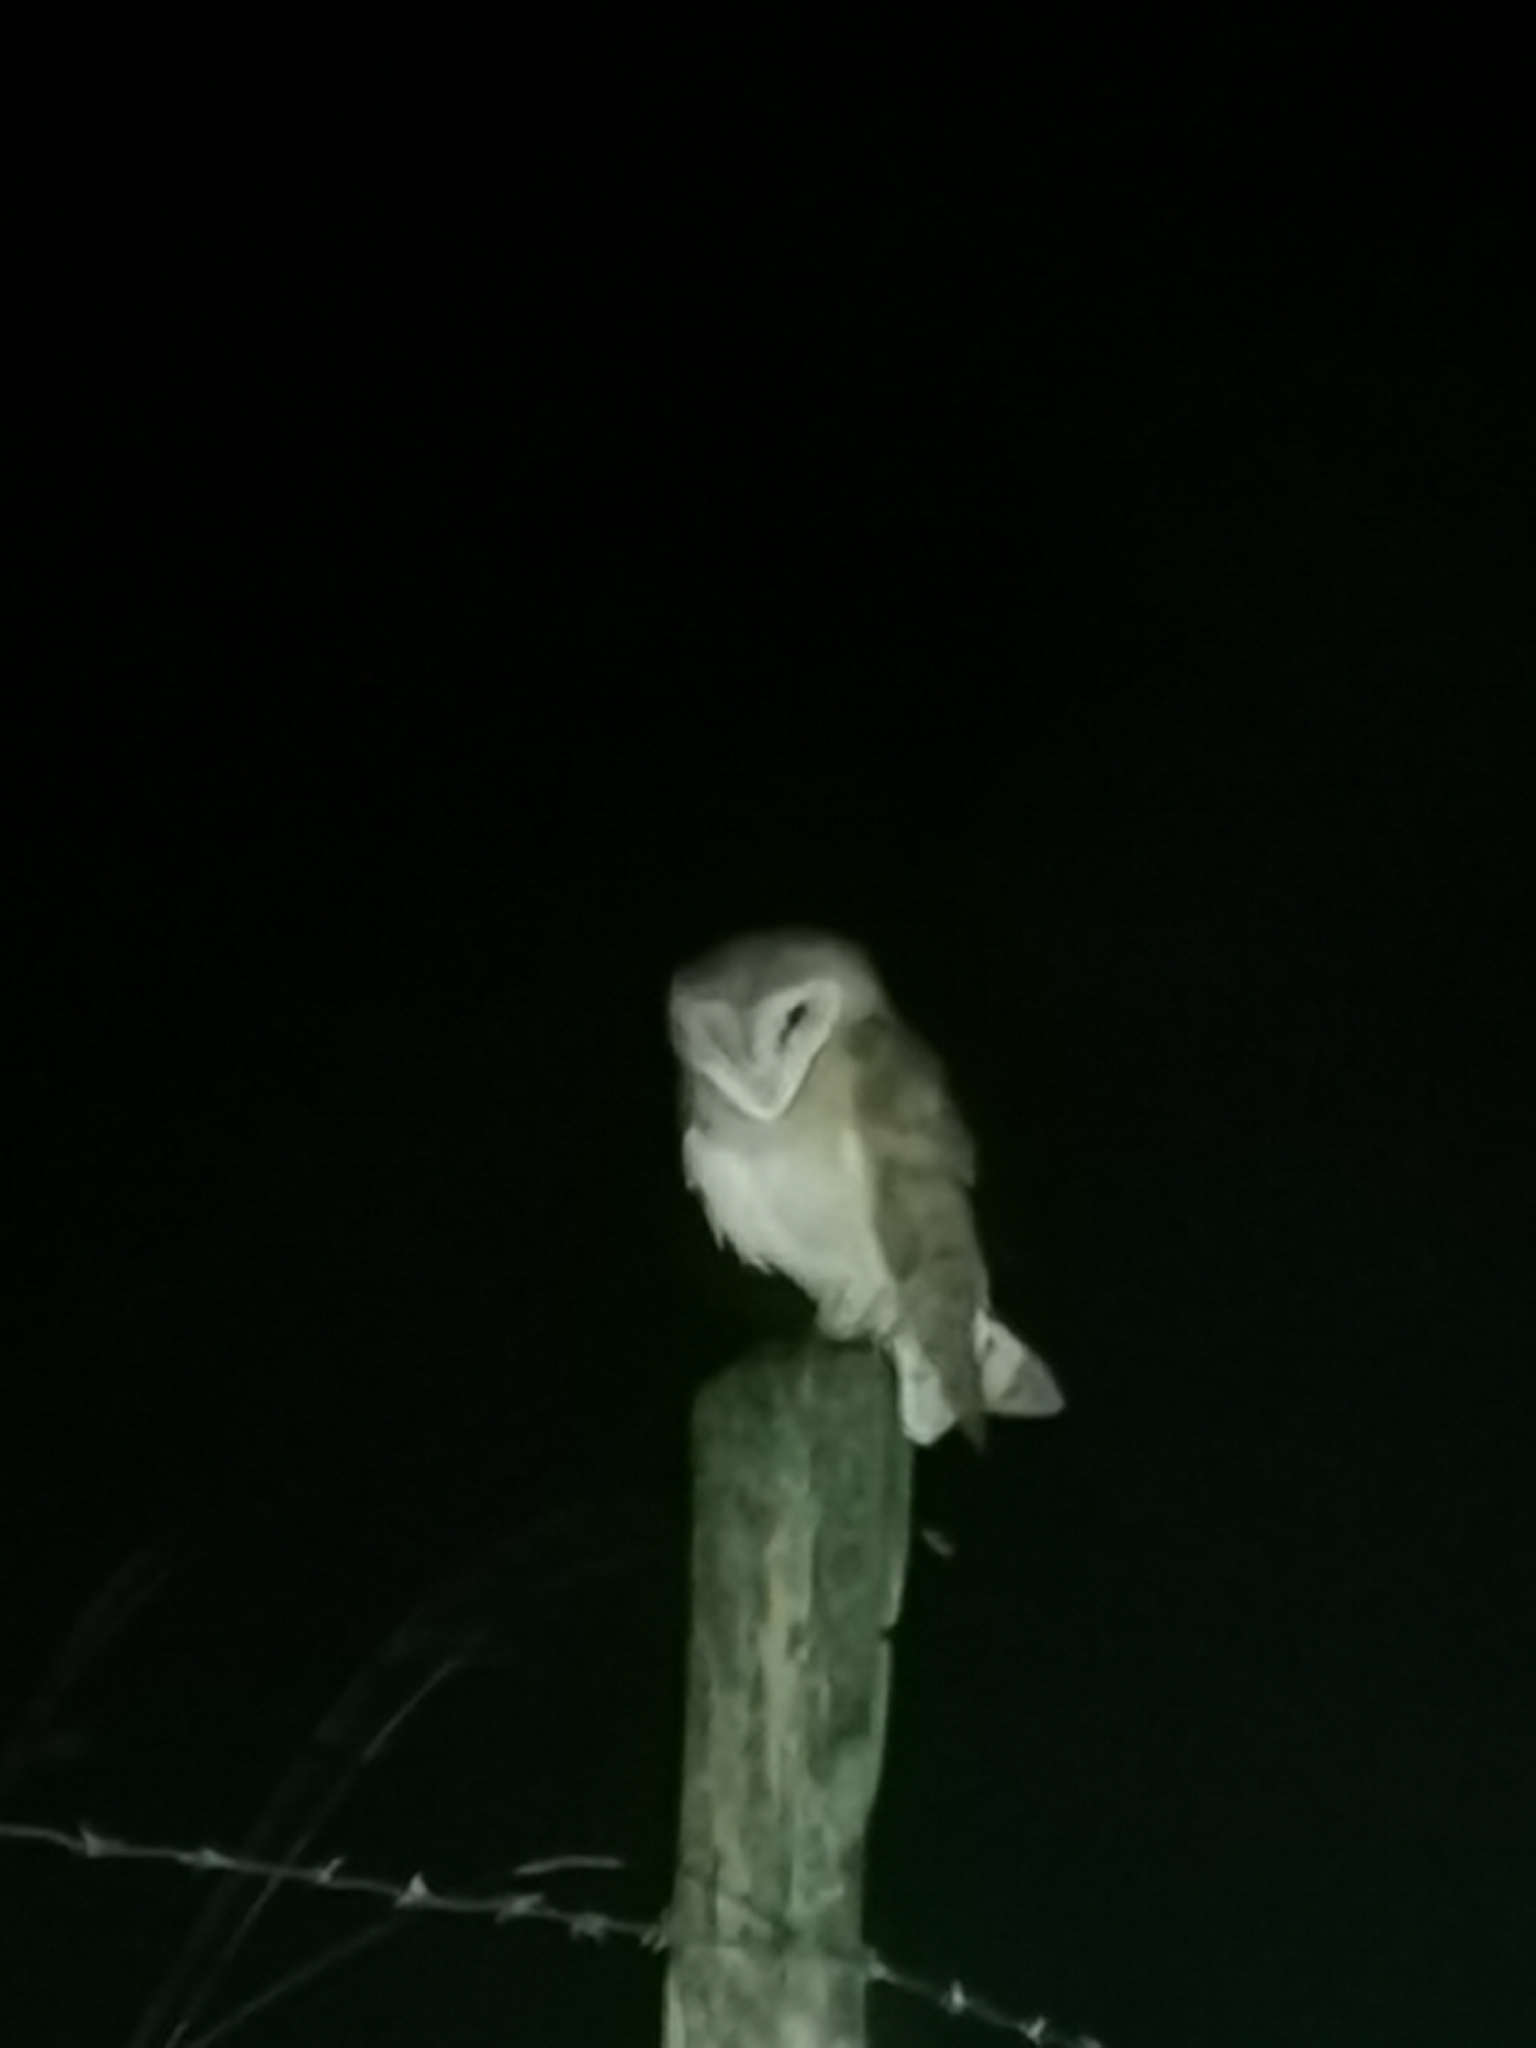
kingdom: Animalia
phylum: Chordata
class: Aves
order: Strigiformes
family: Tytonidae
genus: Tyto
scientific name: Tyto alba
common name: Barn owl
